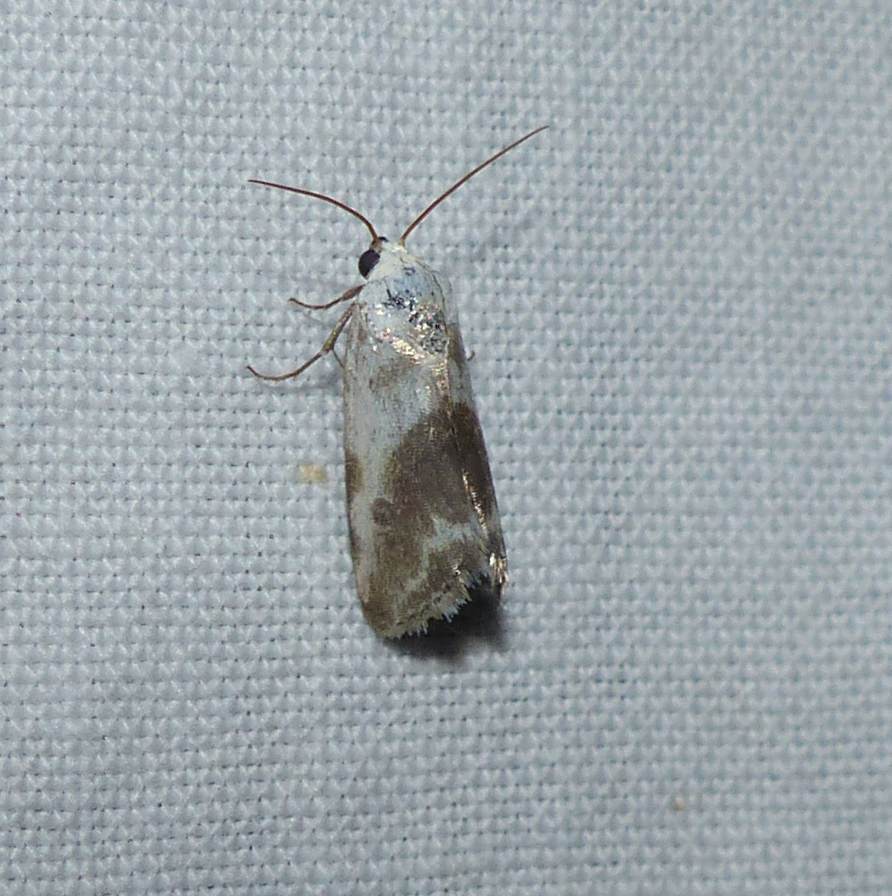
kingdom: Animalia
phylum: Arthropoda
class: Insecta
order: Lepidoptera
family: Noctuidae
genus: Acontia
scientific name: Acontia candefacta
